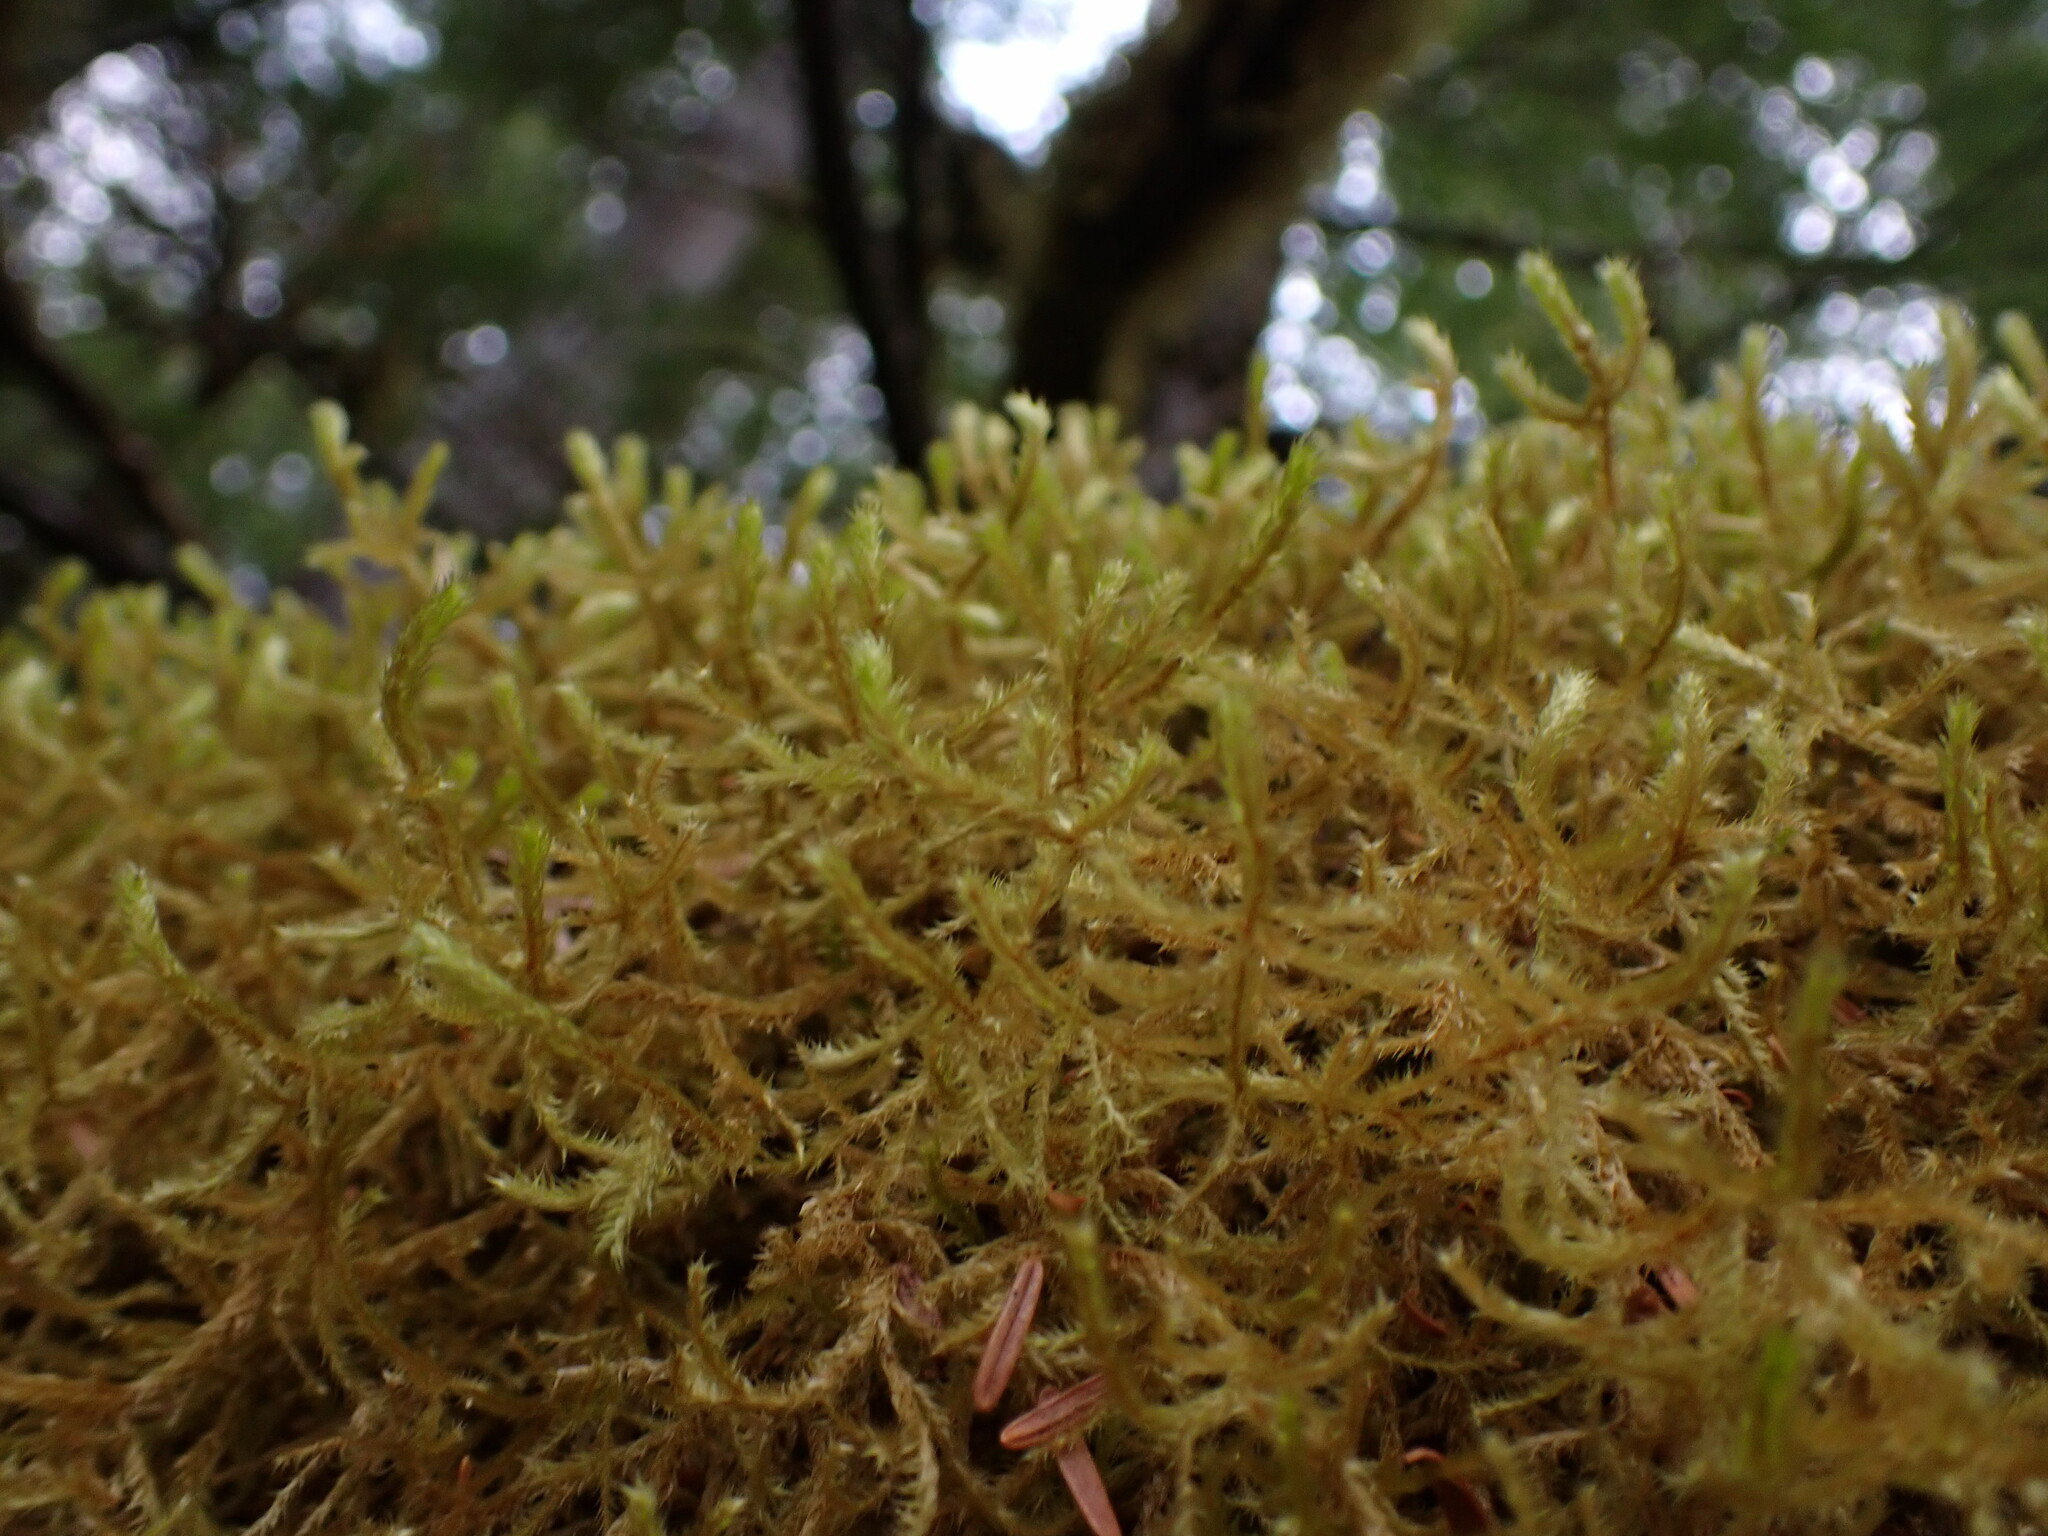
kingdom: Plantae
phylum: Bryophyta
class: Bryopsida
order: Hypnales
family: Antitrichiaceae
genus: Antitrichia
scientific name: Antitrichia curtipendula
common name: Pendulous wing-moss
